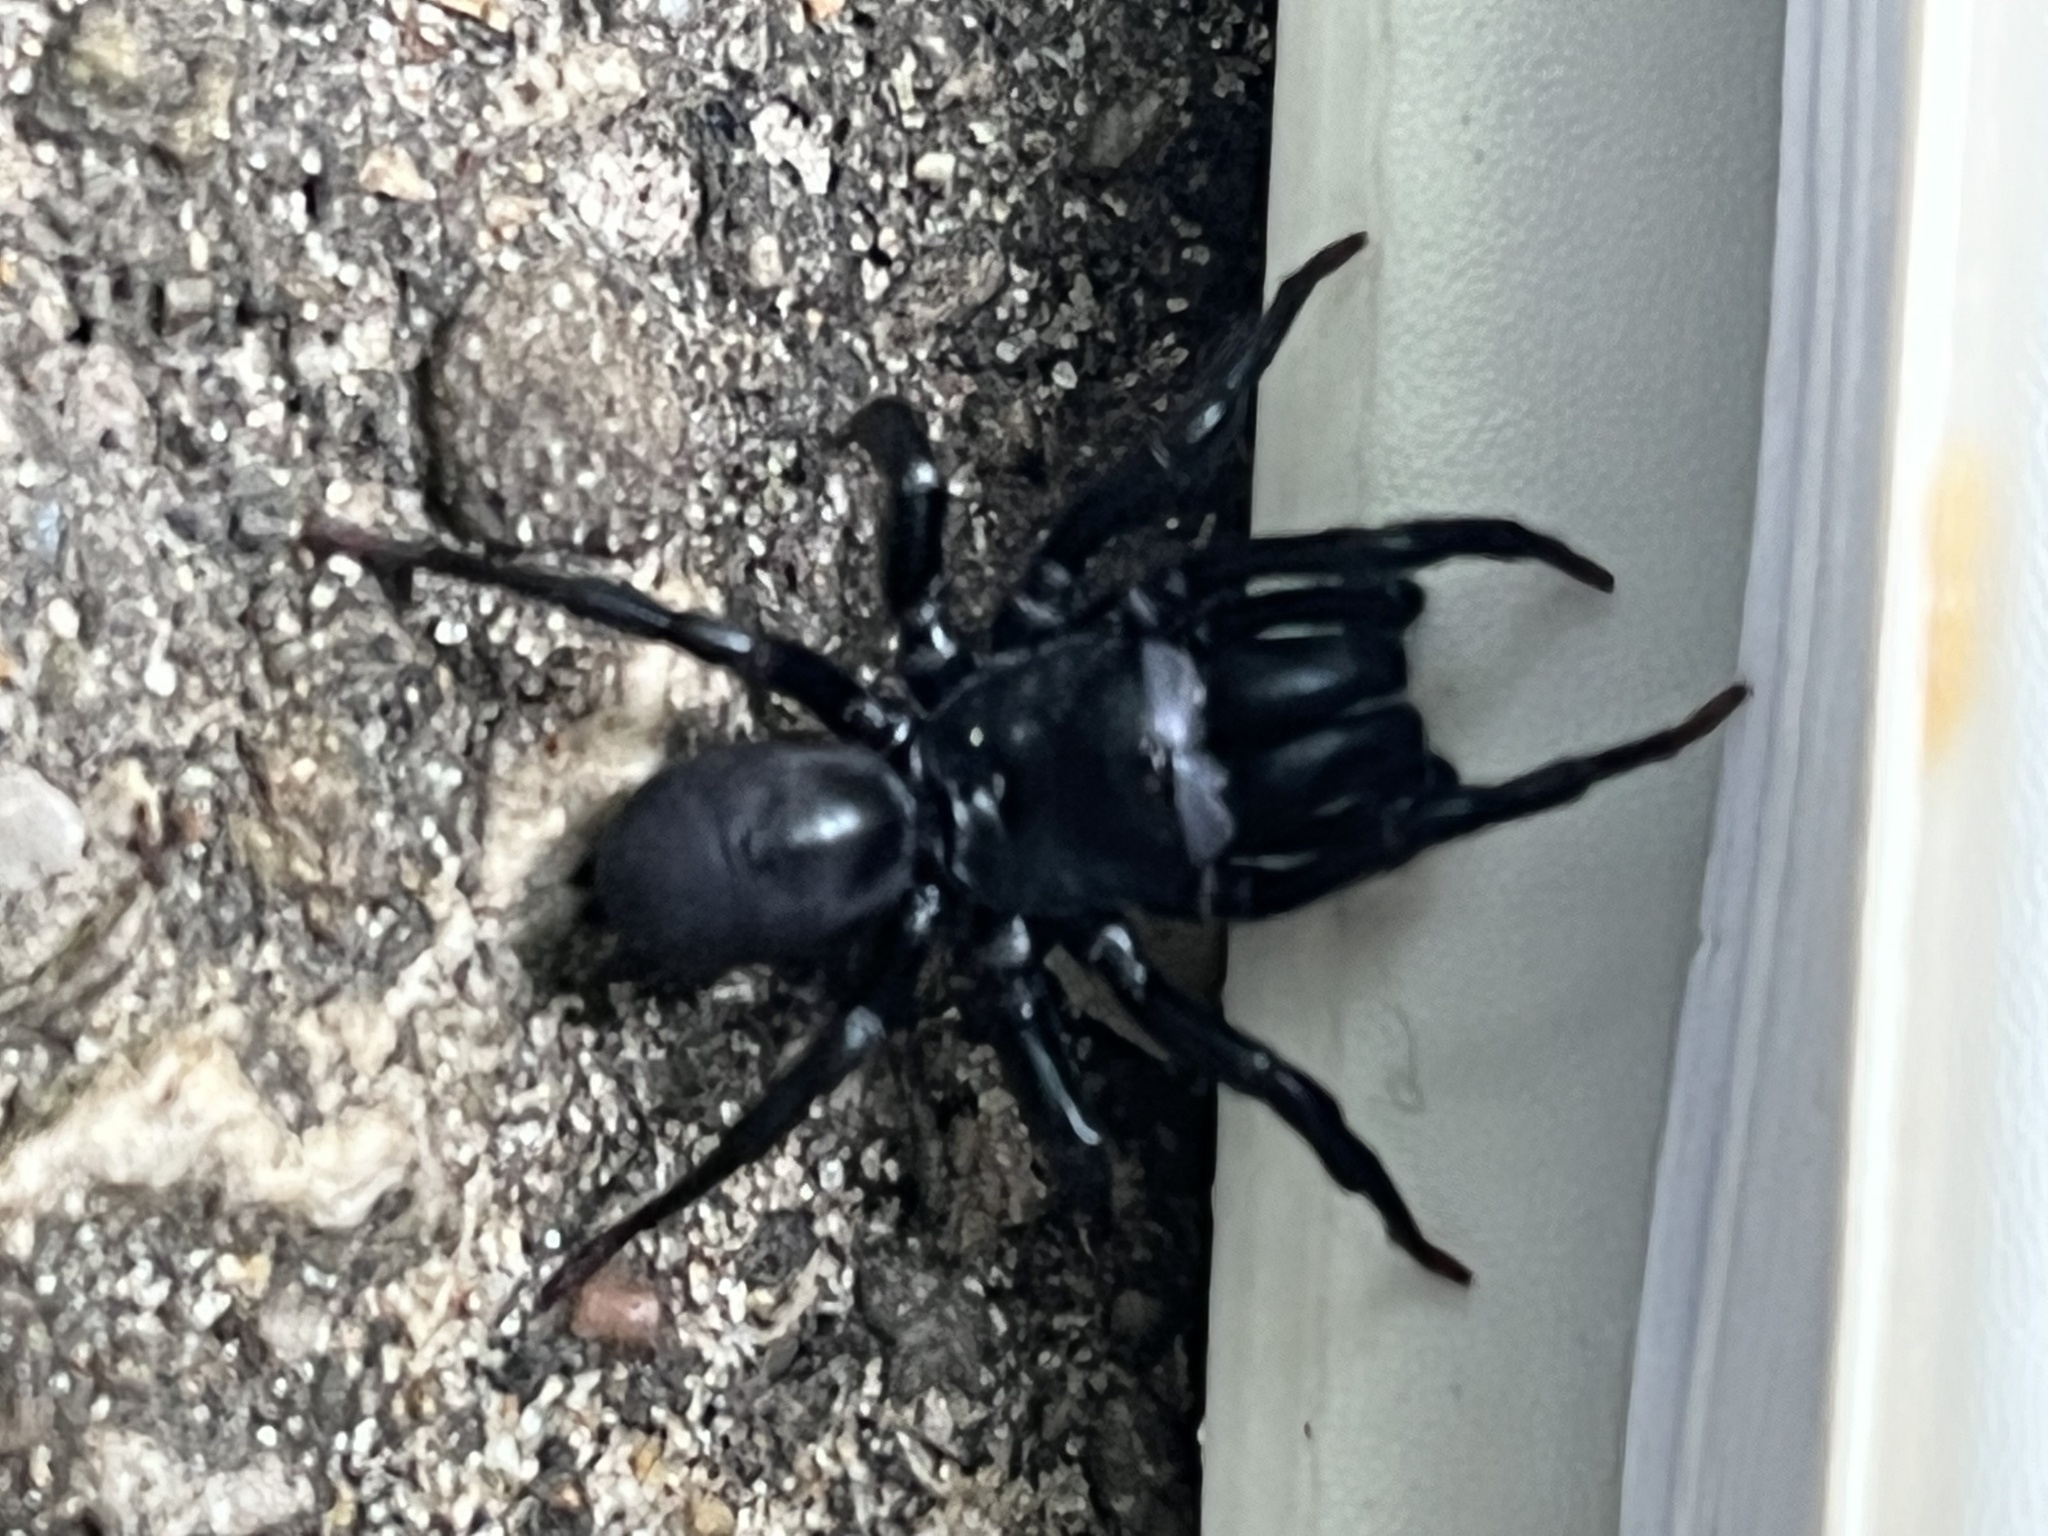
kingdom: Animalia
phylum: Arthropoda
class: Arachnida
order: Araneae
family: Atypidae
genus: Sphodros
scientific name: Sphodros niger
